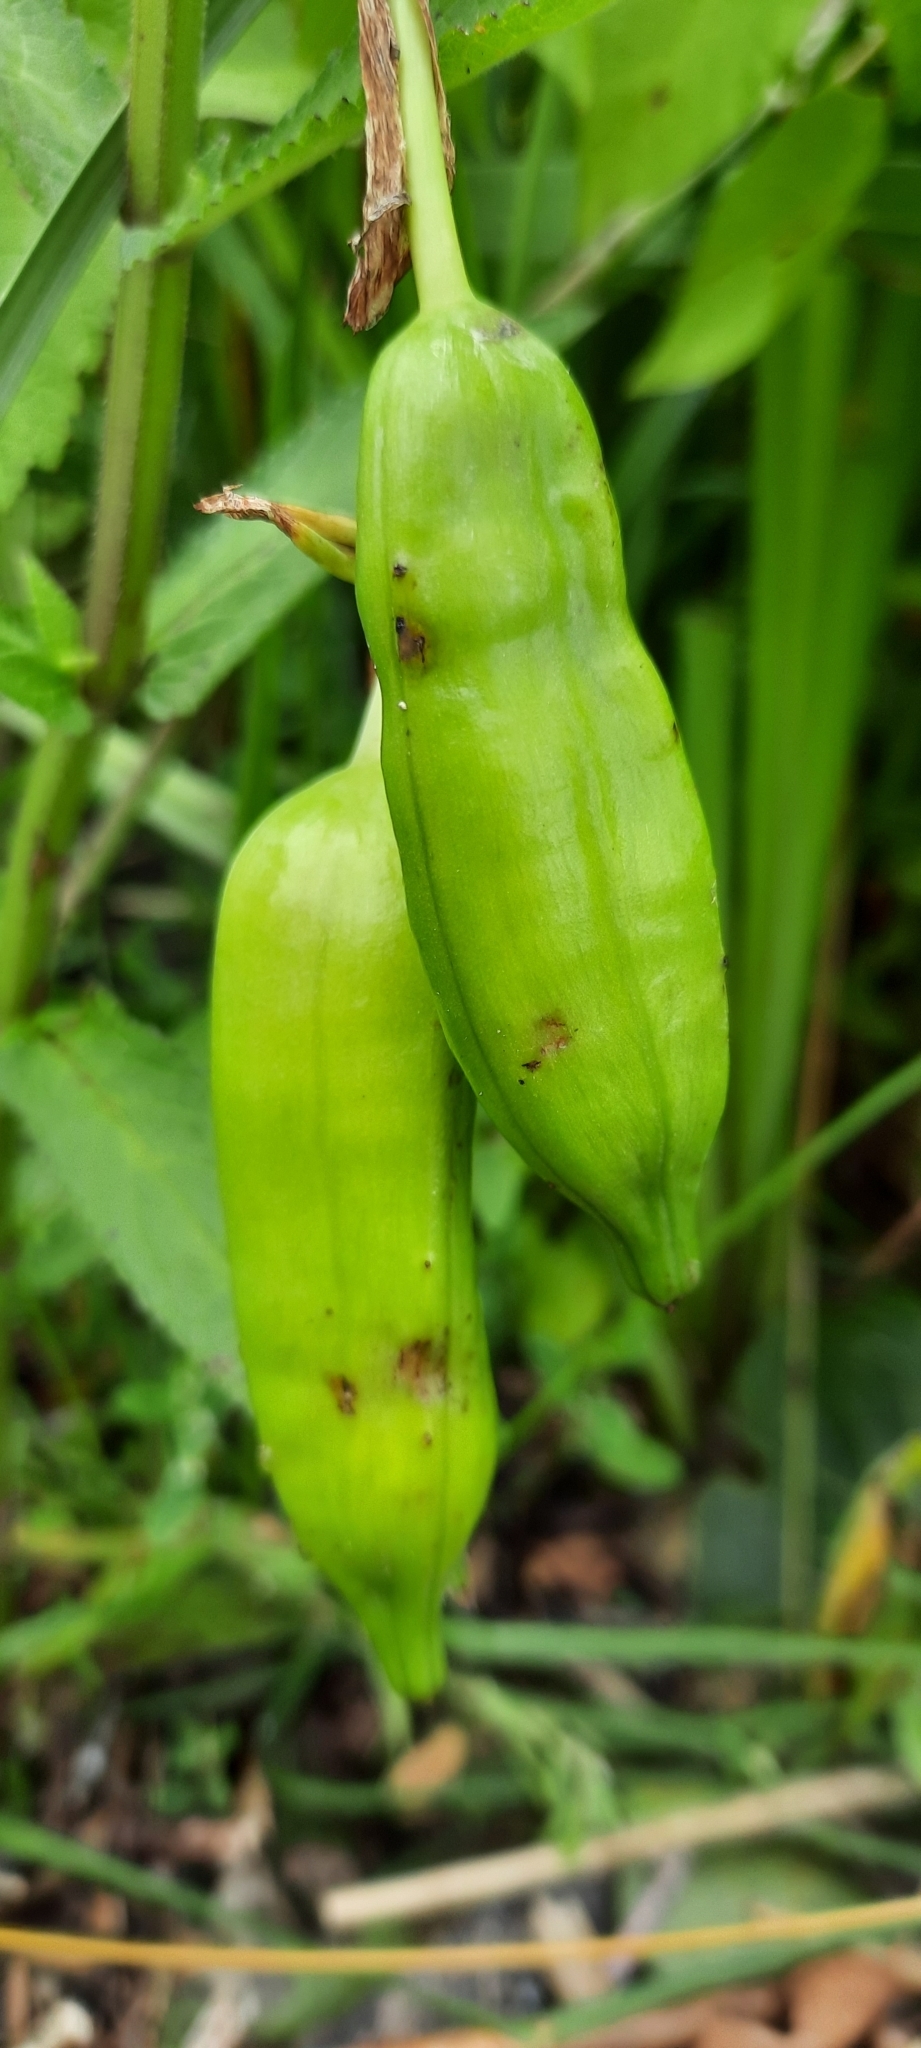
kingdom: Plantae
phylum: Tracheophyta
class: Liliopsida
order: Asparagales
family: Iridaceae
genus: Iris
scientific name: Iris pseudacorus
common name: Yellow flag
